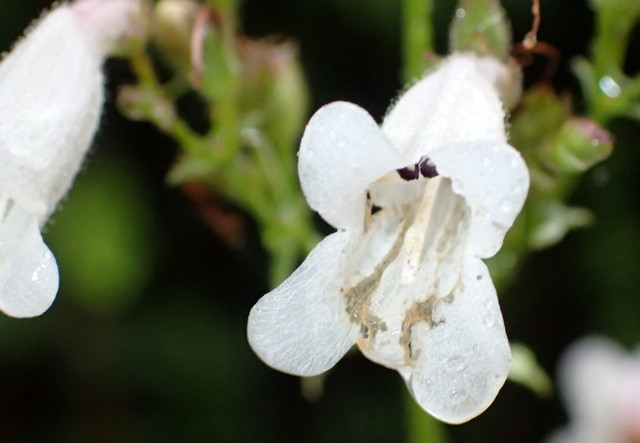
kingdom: Plantae
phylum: Tracheophyta
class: Magnoliopsida
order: Lamiales
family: Plantaginaceae
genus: Penstemon
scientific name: Penstemon multiflorus
